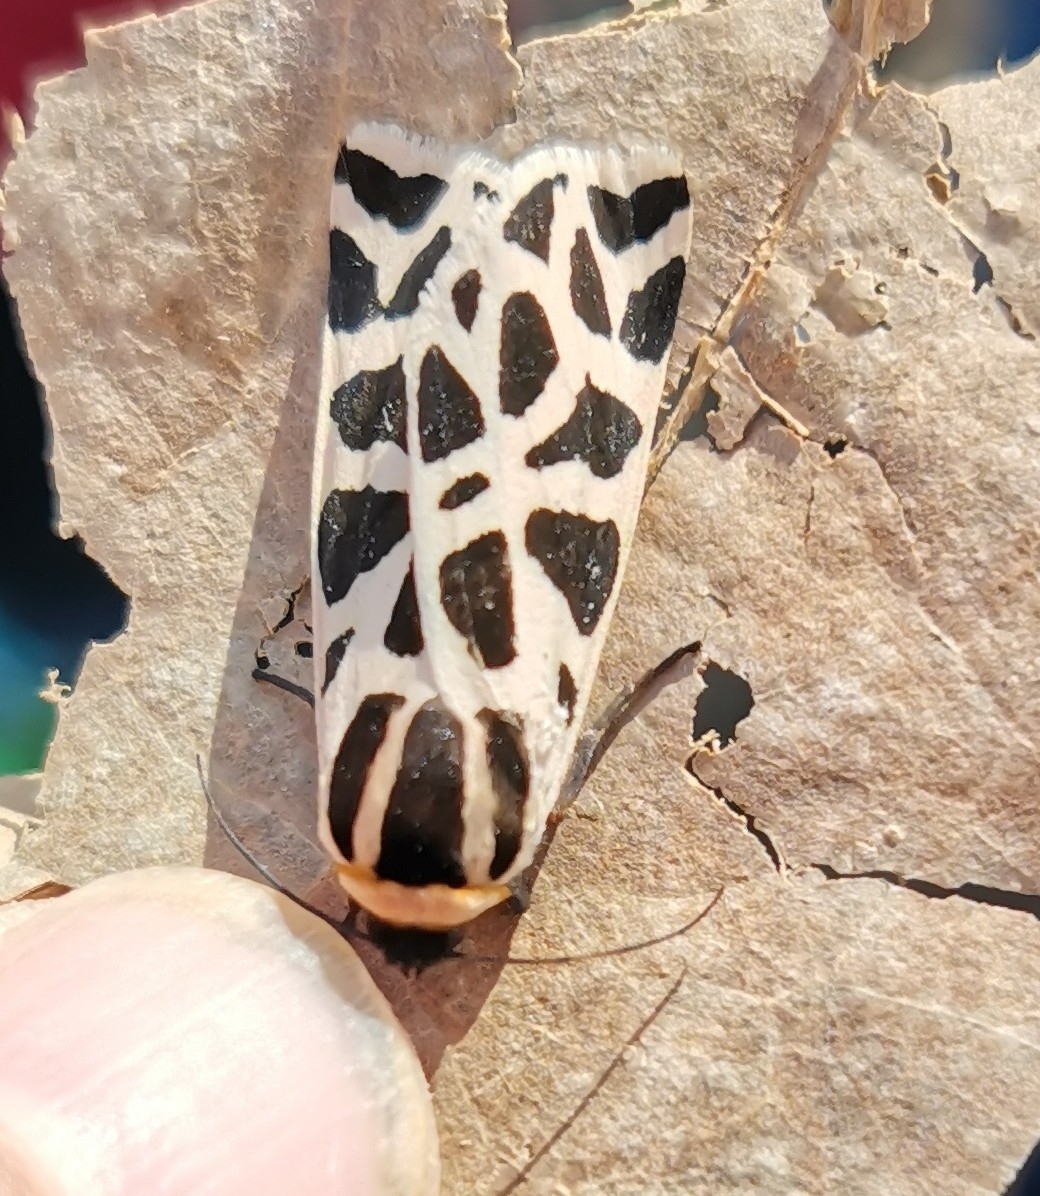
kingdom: Animalia
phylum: Arthropoda
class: Insecta
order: Lepidoptera
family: Erebidae
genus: Cymbalophora
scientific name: Cymbalophora pudica
